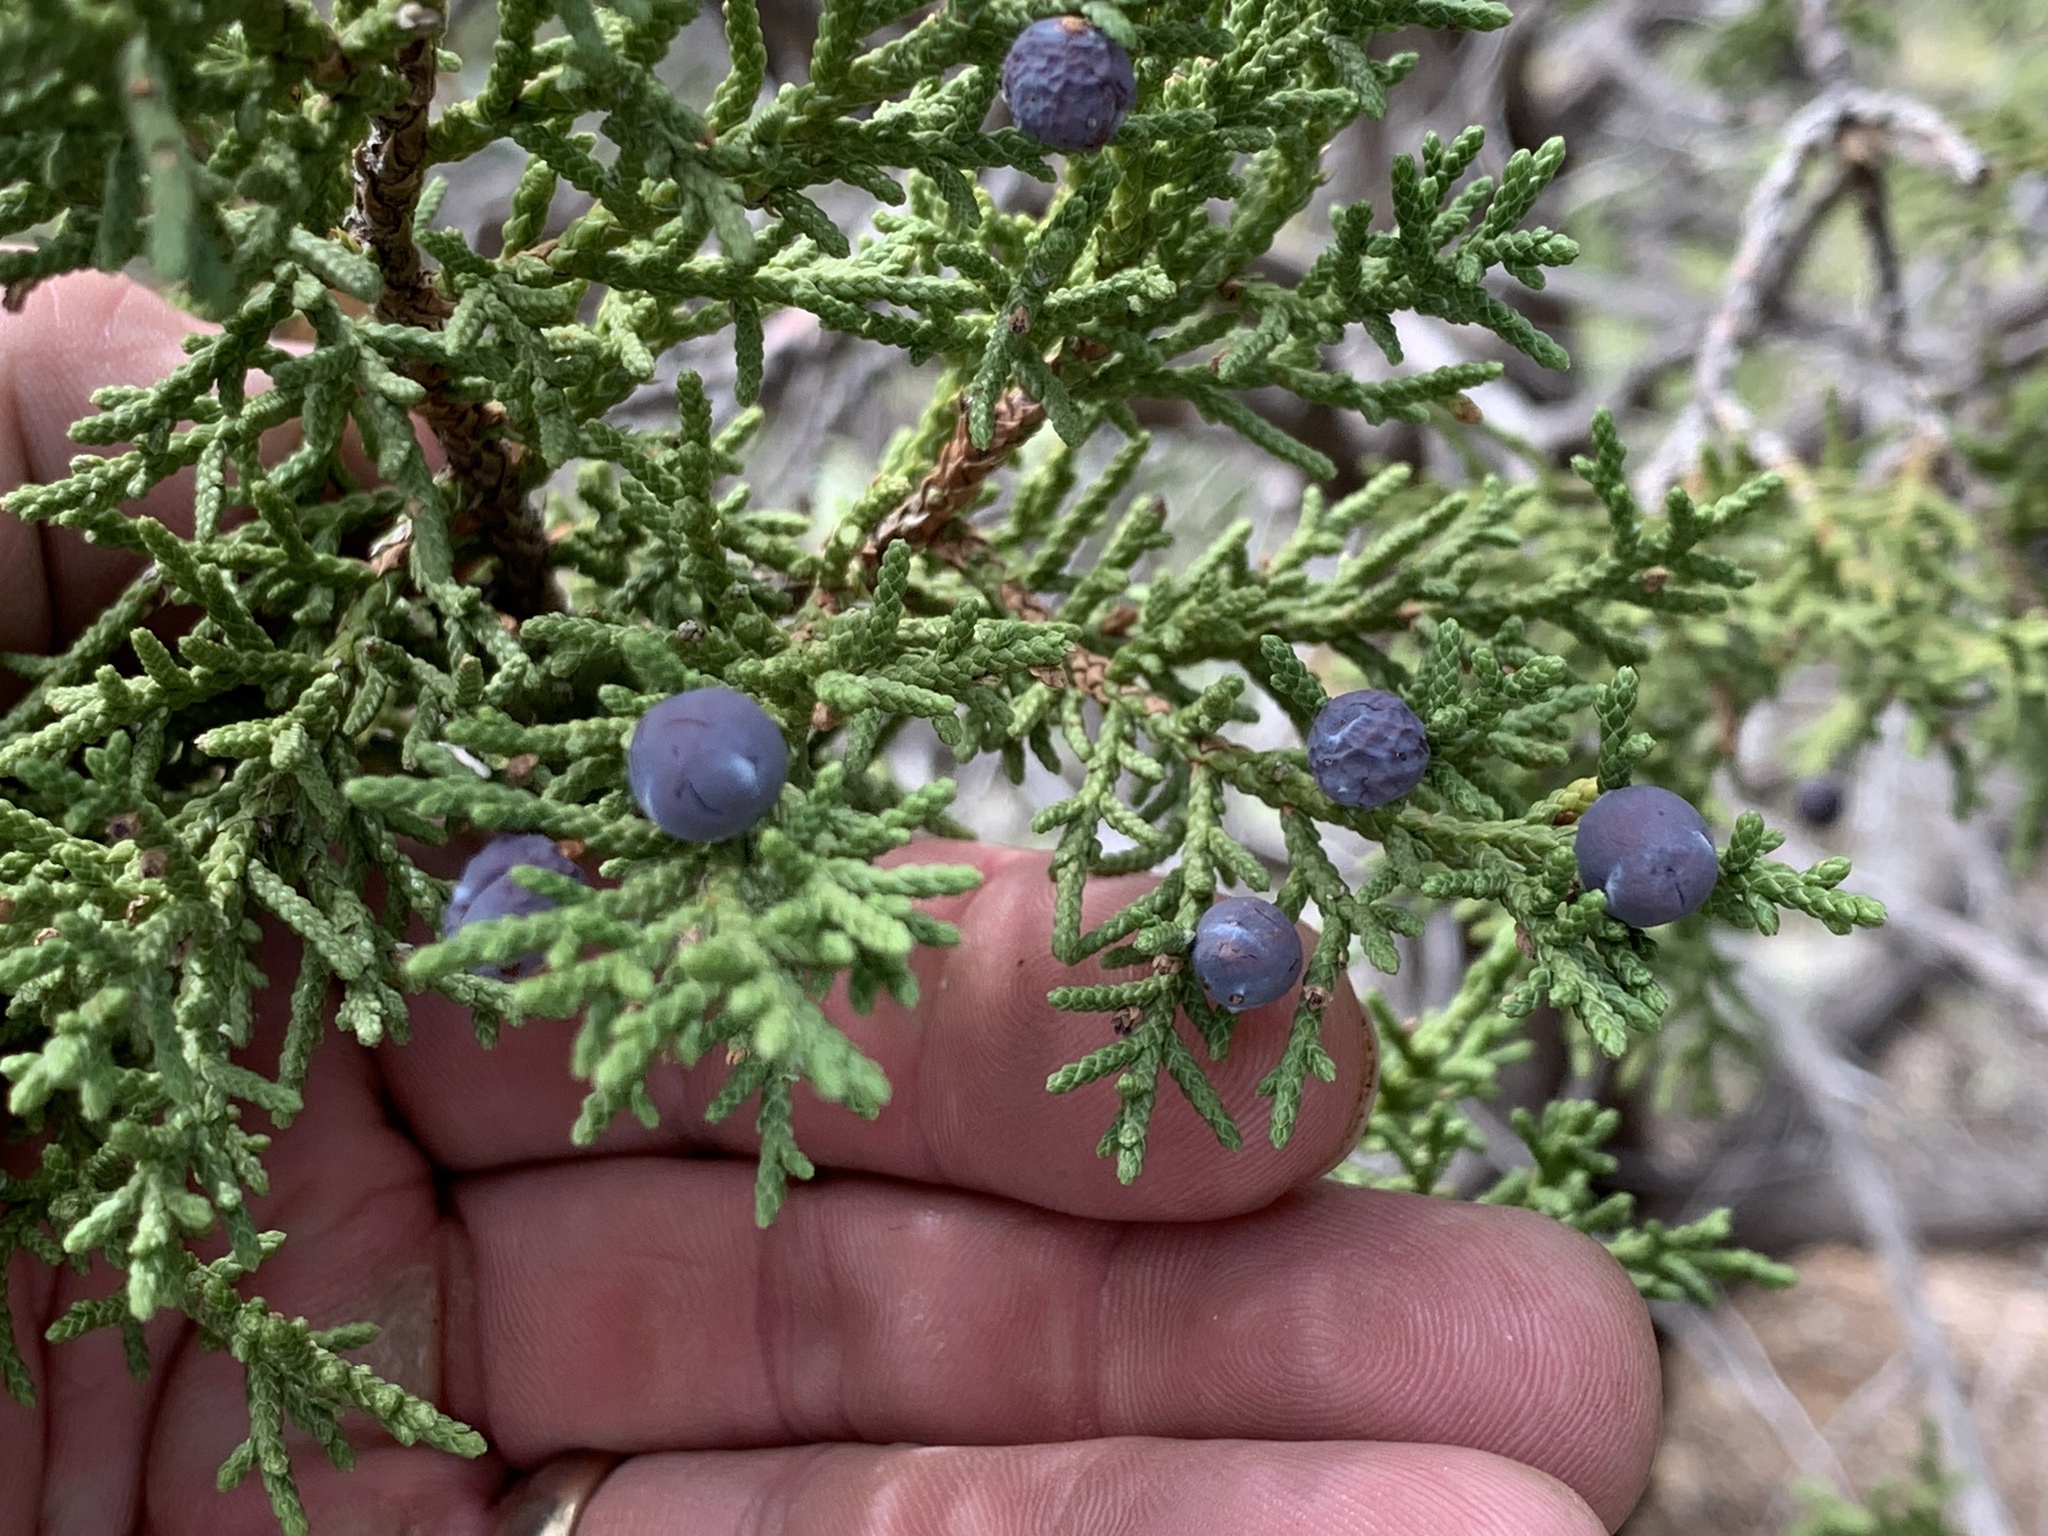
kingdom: Plantae
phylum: Tracheophyta
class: Pinopsida
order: Pinales
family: Cupressaceae
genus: Juniperus
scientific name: Juniperus monosperma
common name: One-seed juniper
